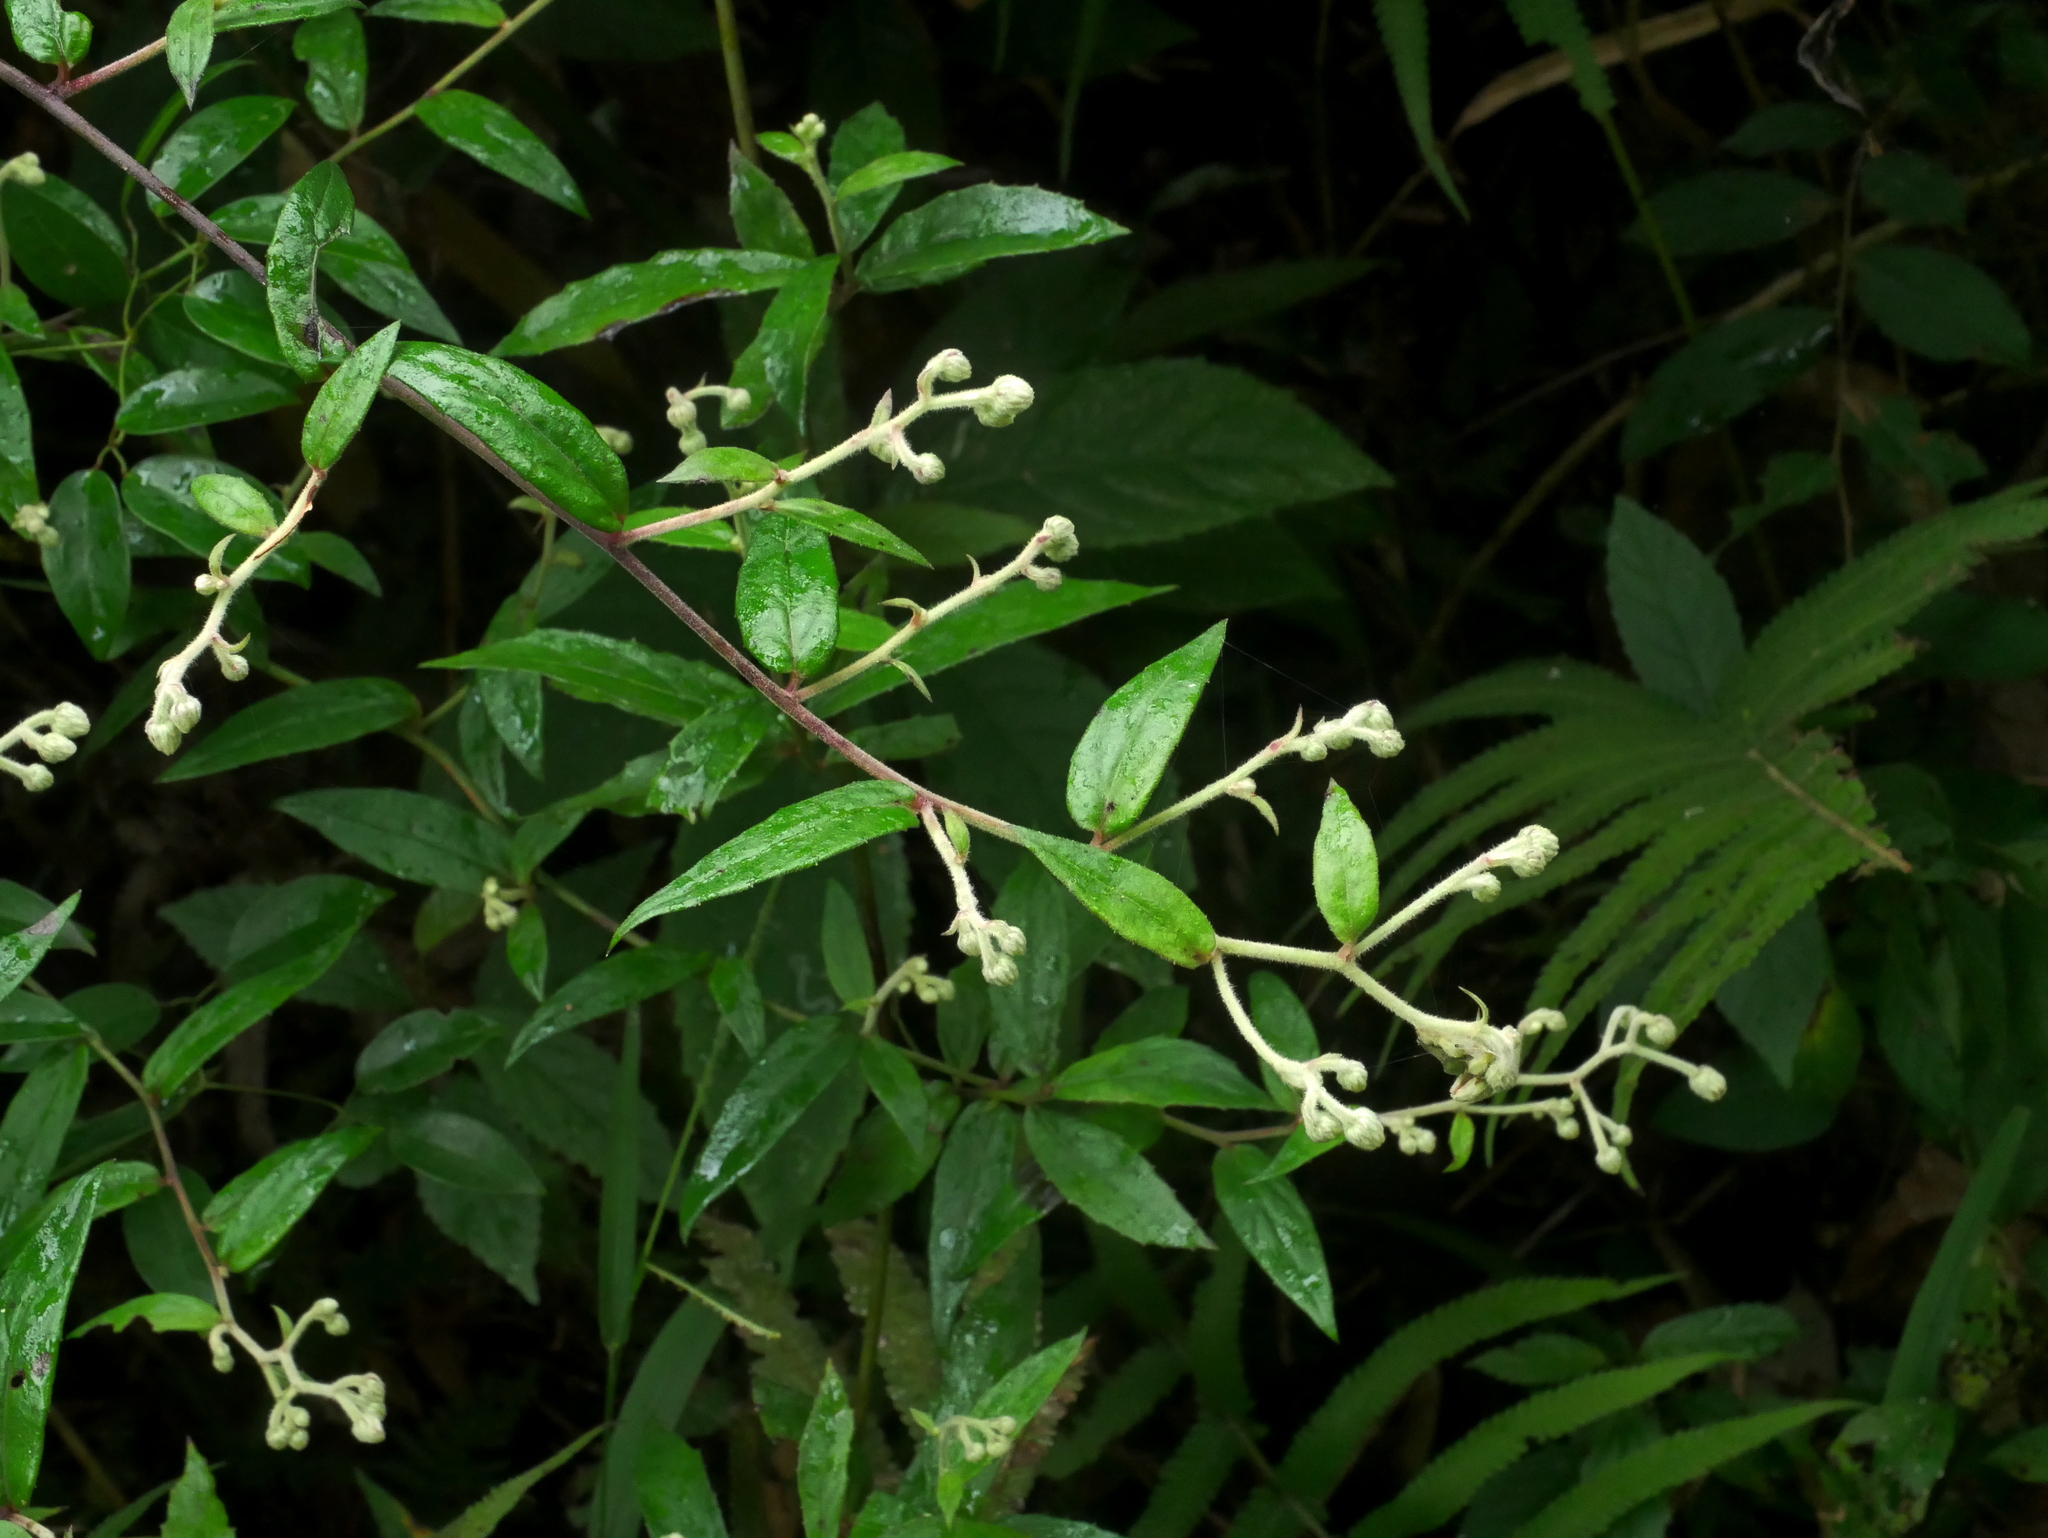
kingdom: Plantae
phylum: Tracheophyta
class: Magnoliopsida
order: Asterales
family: Asteraceae
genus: Blumea
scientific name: Blumea megacephala
